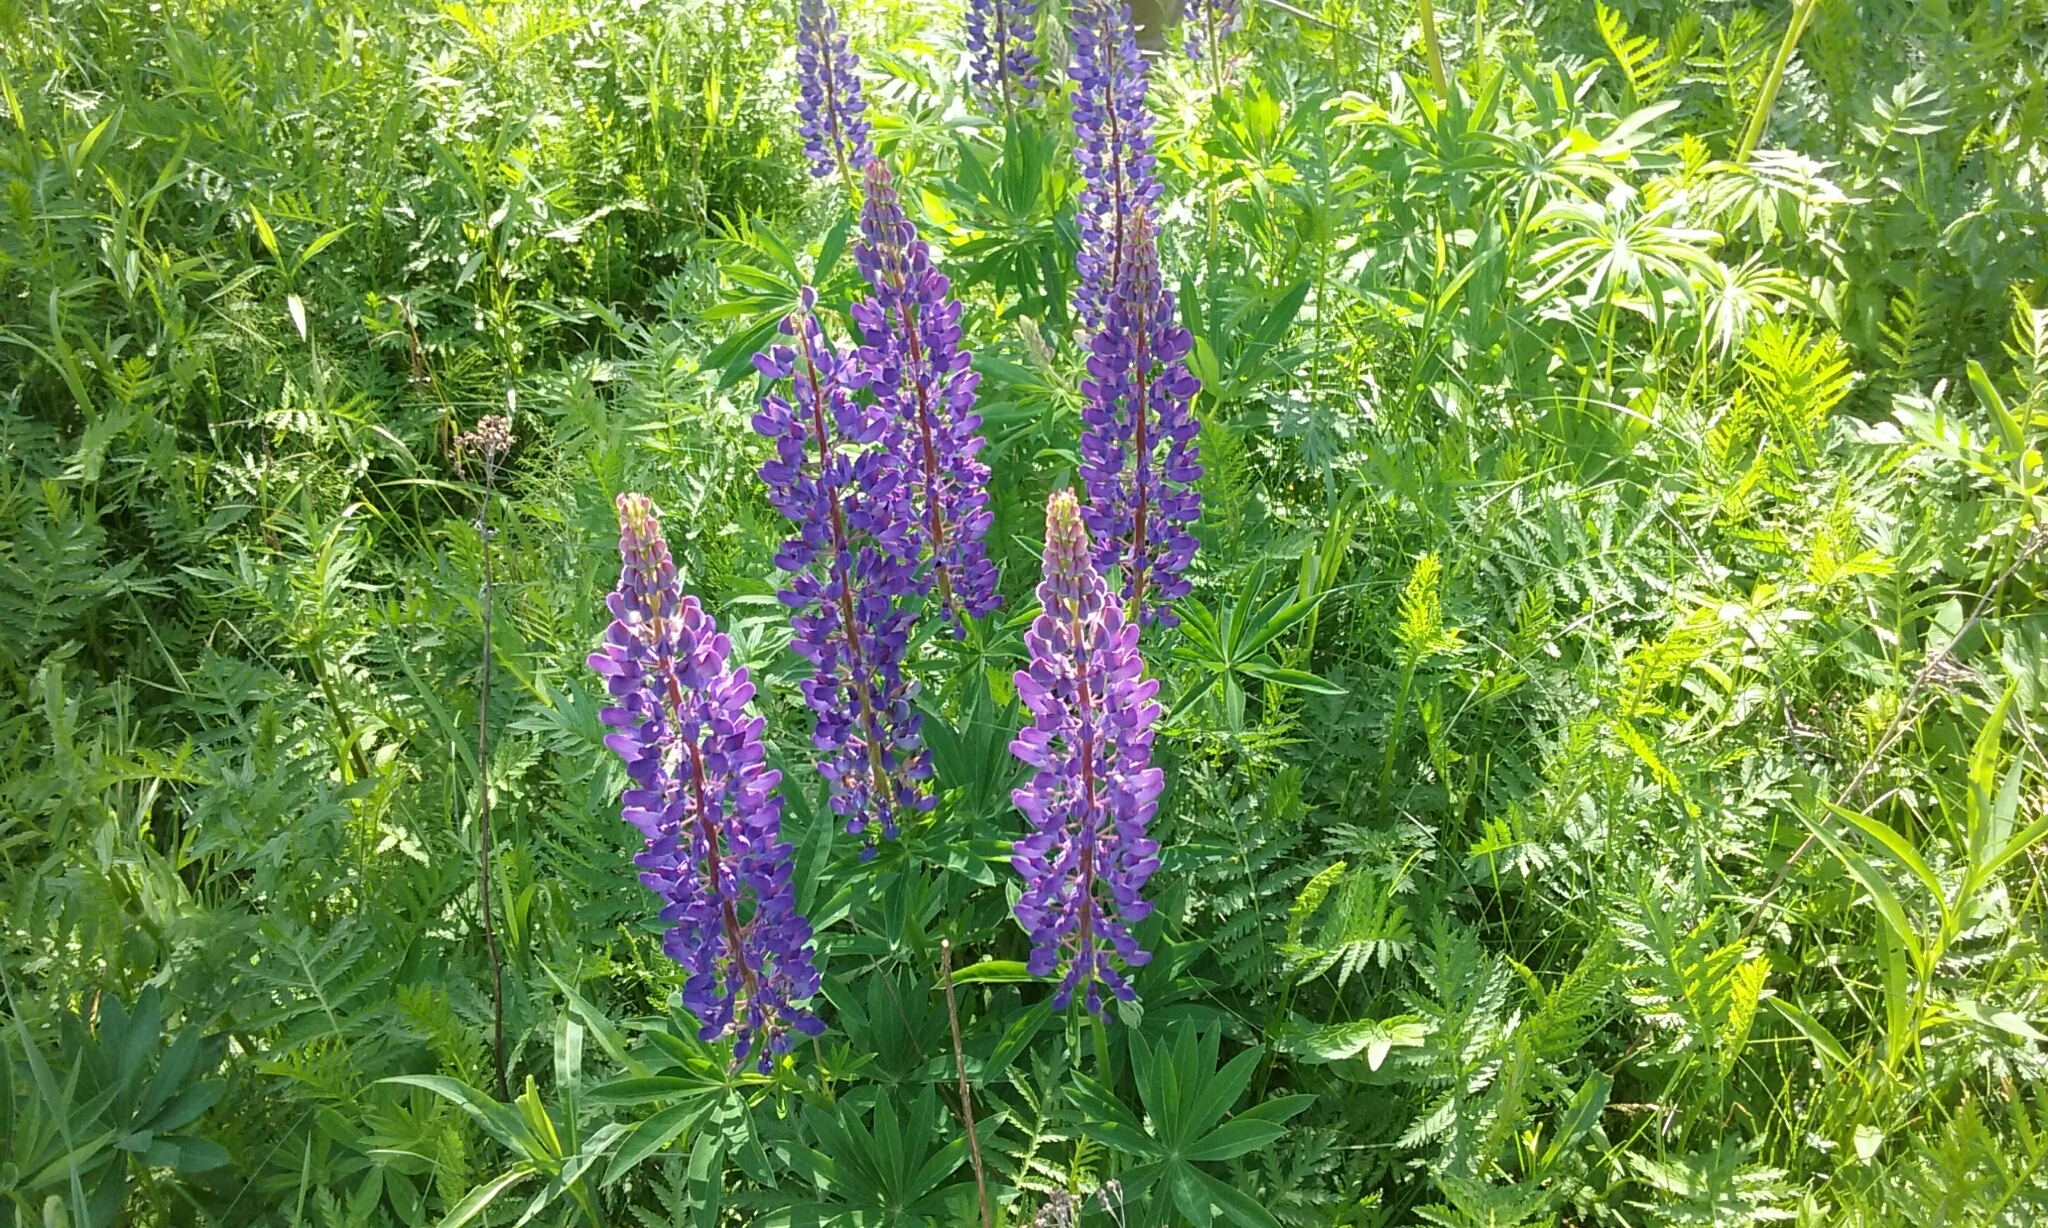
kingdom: Plantae
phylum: Tracheophyta
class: Magnoliopsida
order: Fabales
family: Fabaceae
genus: Lupinus
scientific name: Lupinus polyphyllus
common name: Garden lupin
